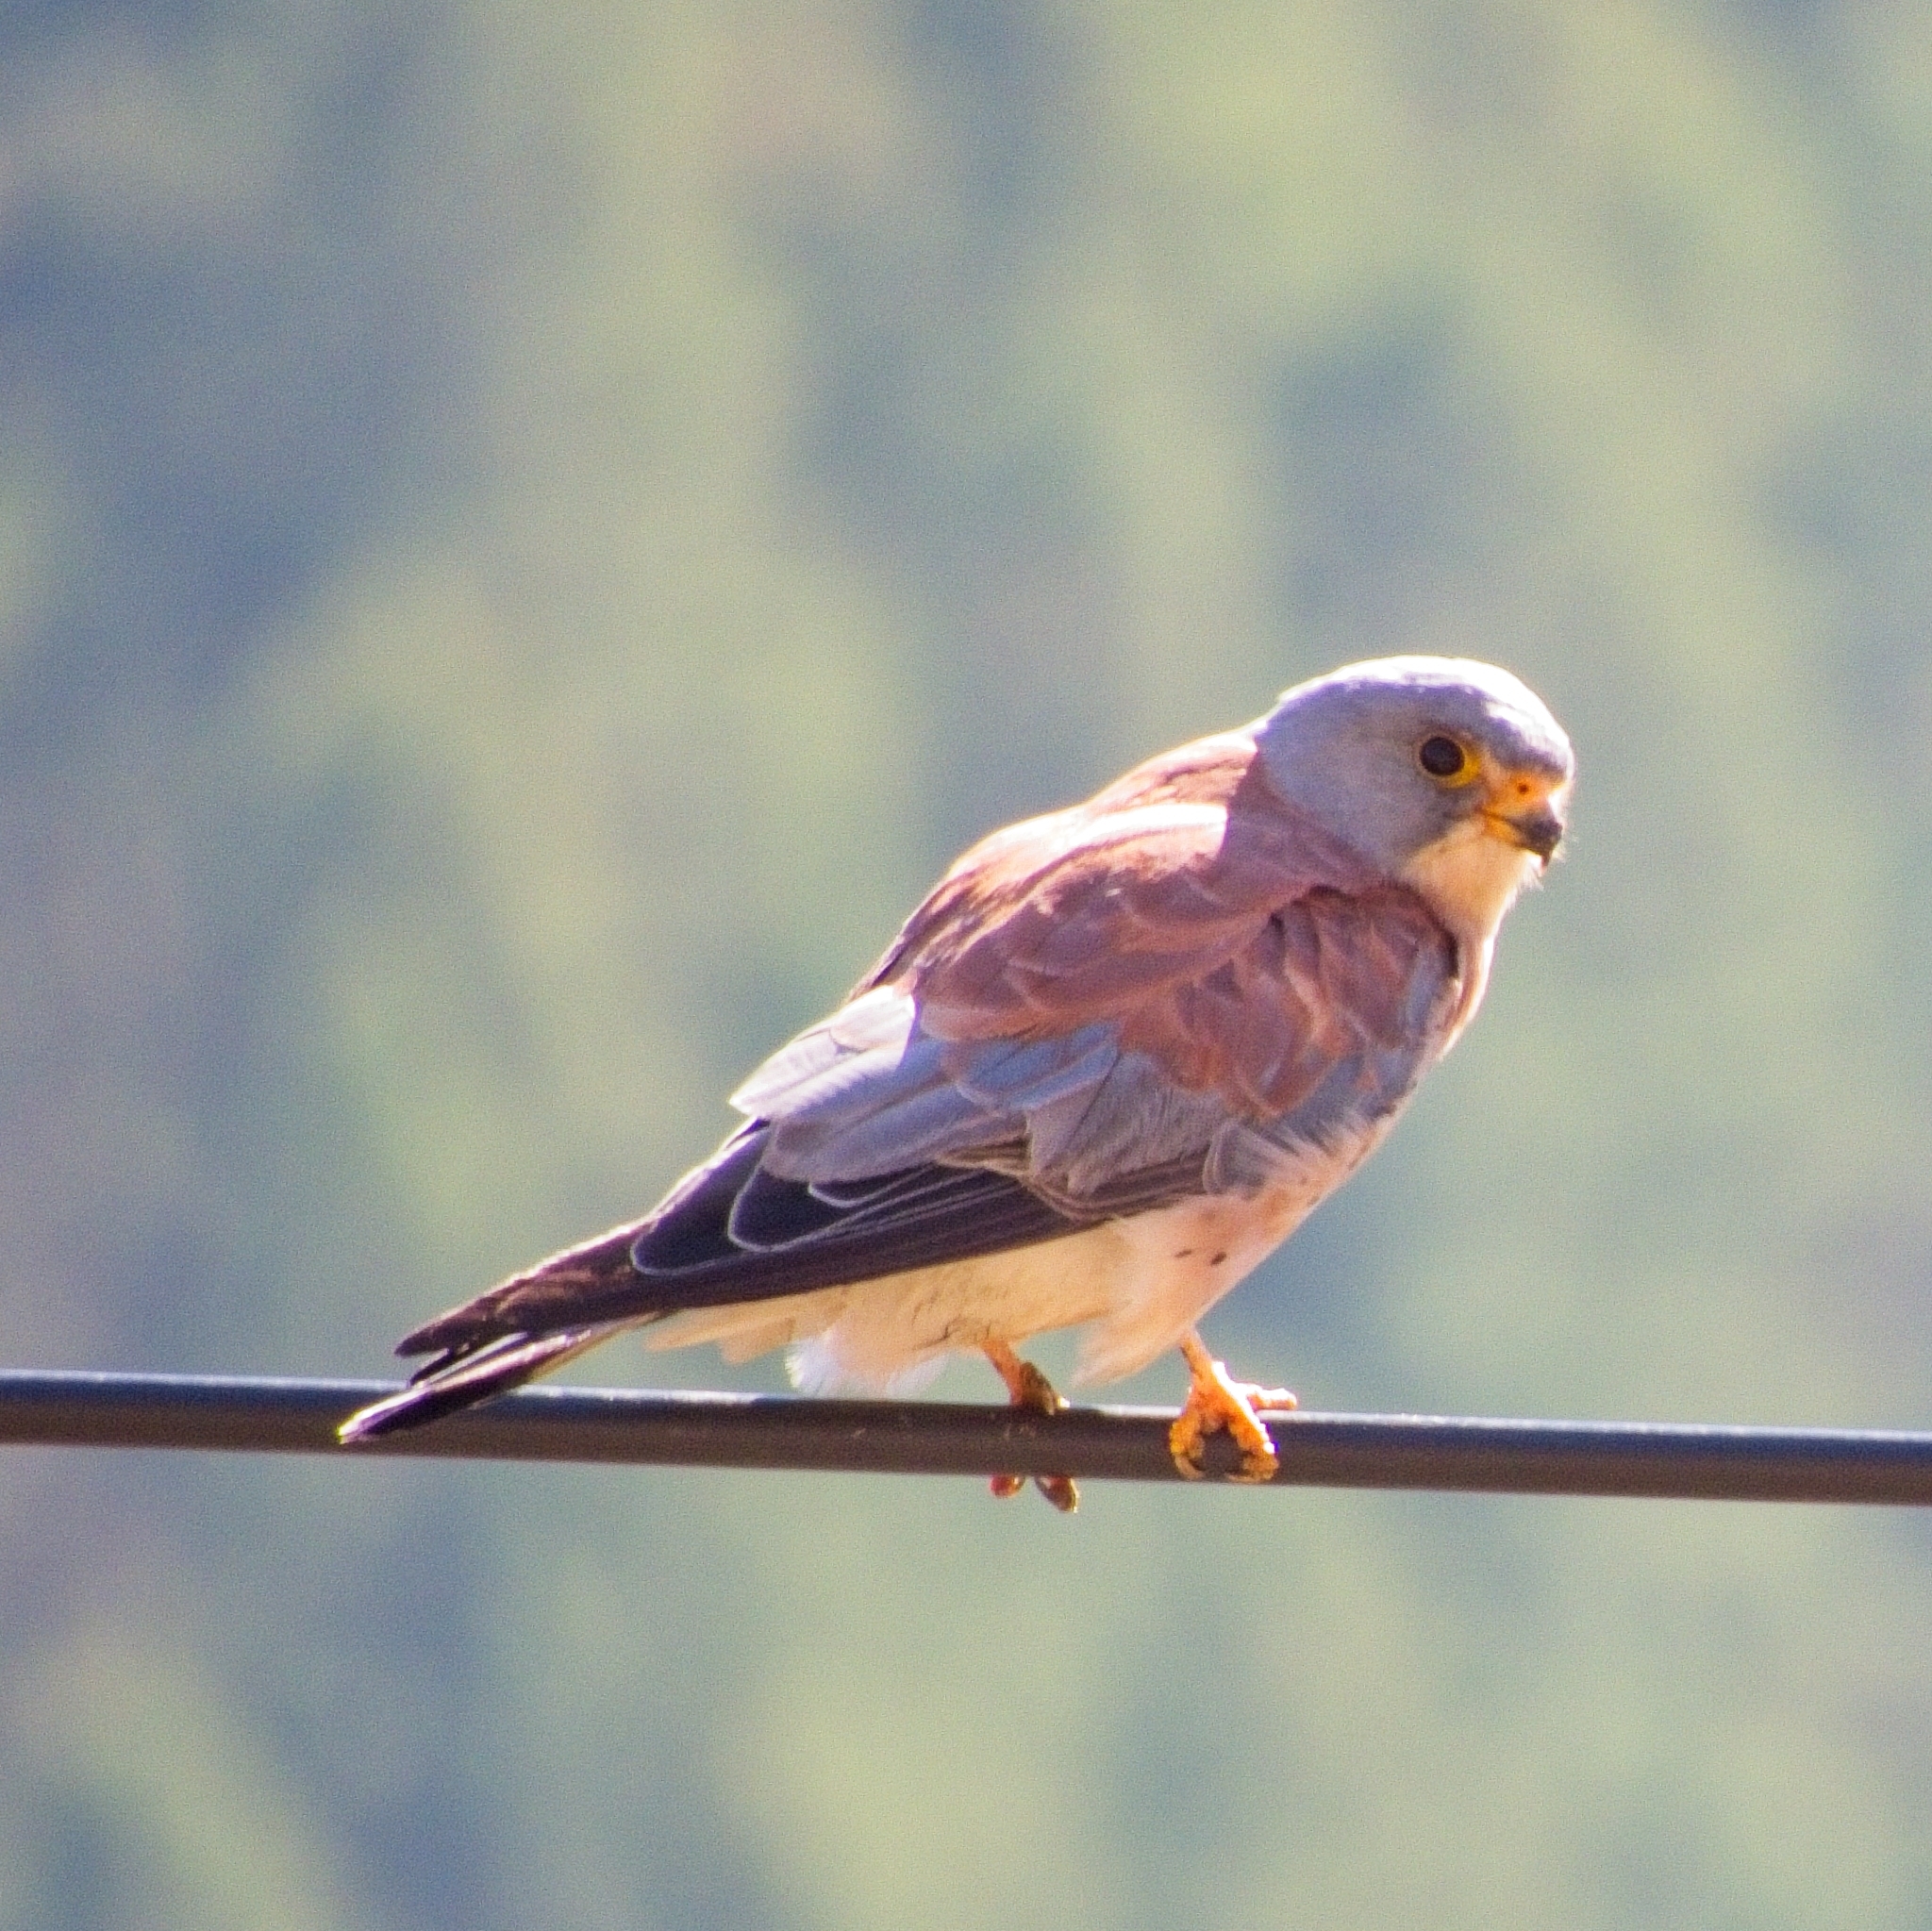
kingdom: Animalia
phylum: Chordata
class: Aves
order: Falconiformes
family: Falconidae
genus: Falco
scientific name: Falco naumanni
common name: Lesser kestrel
